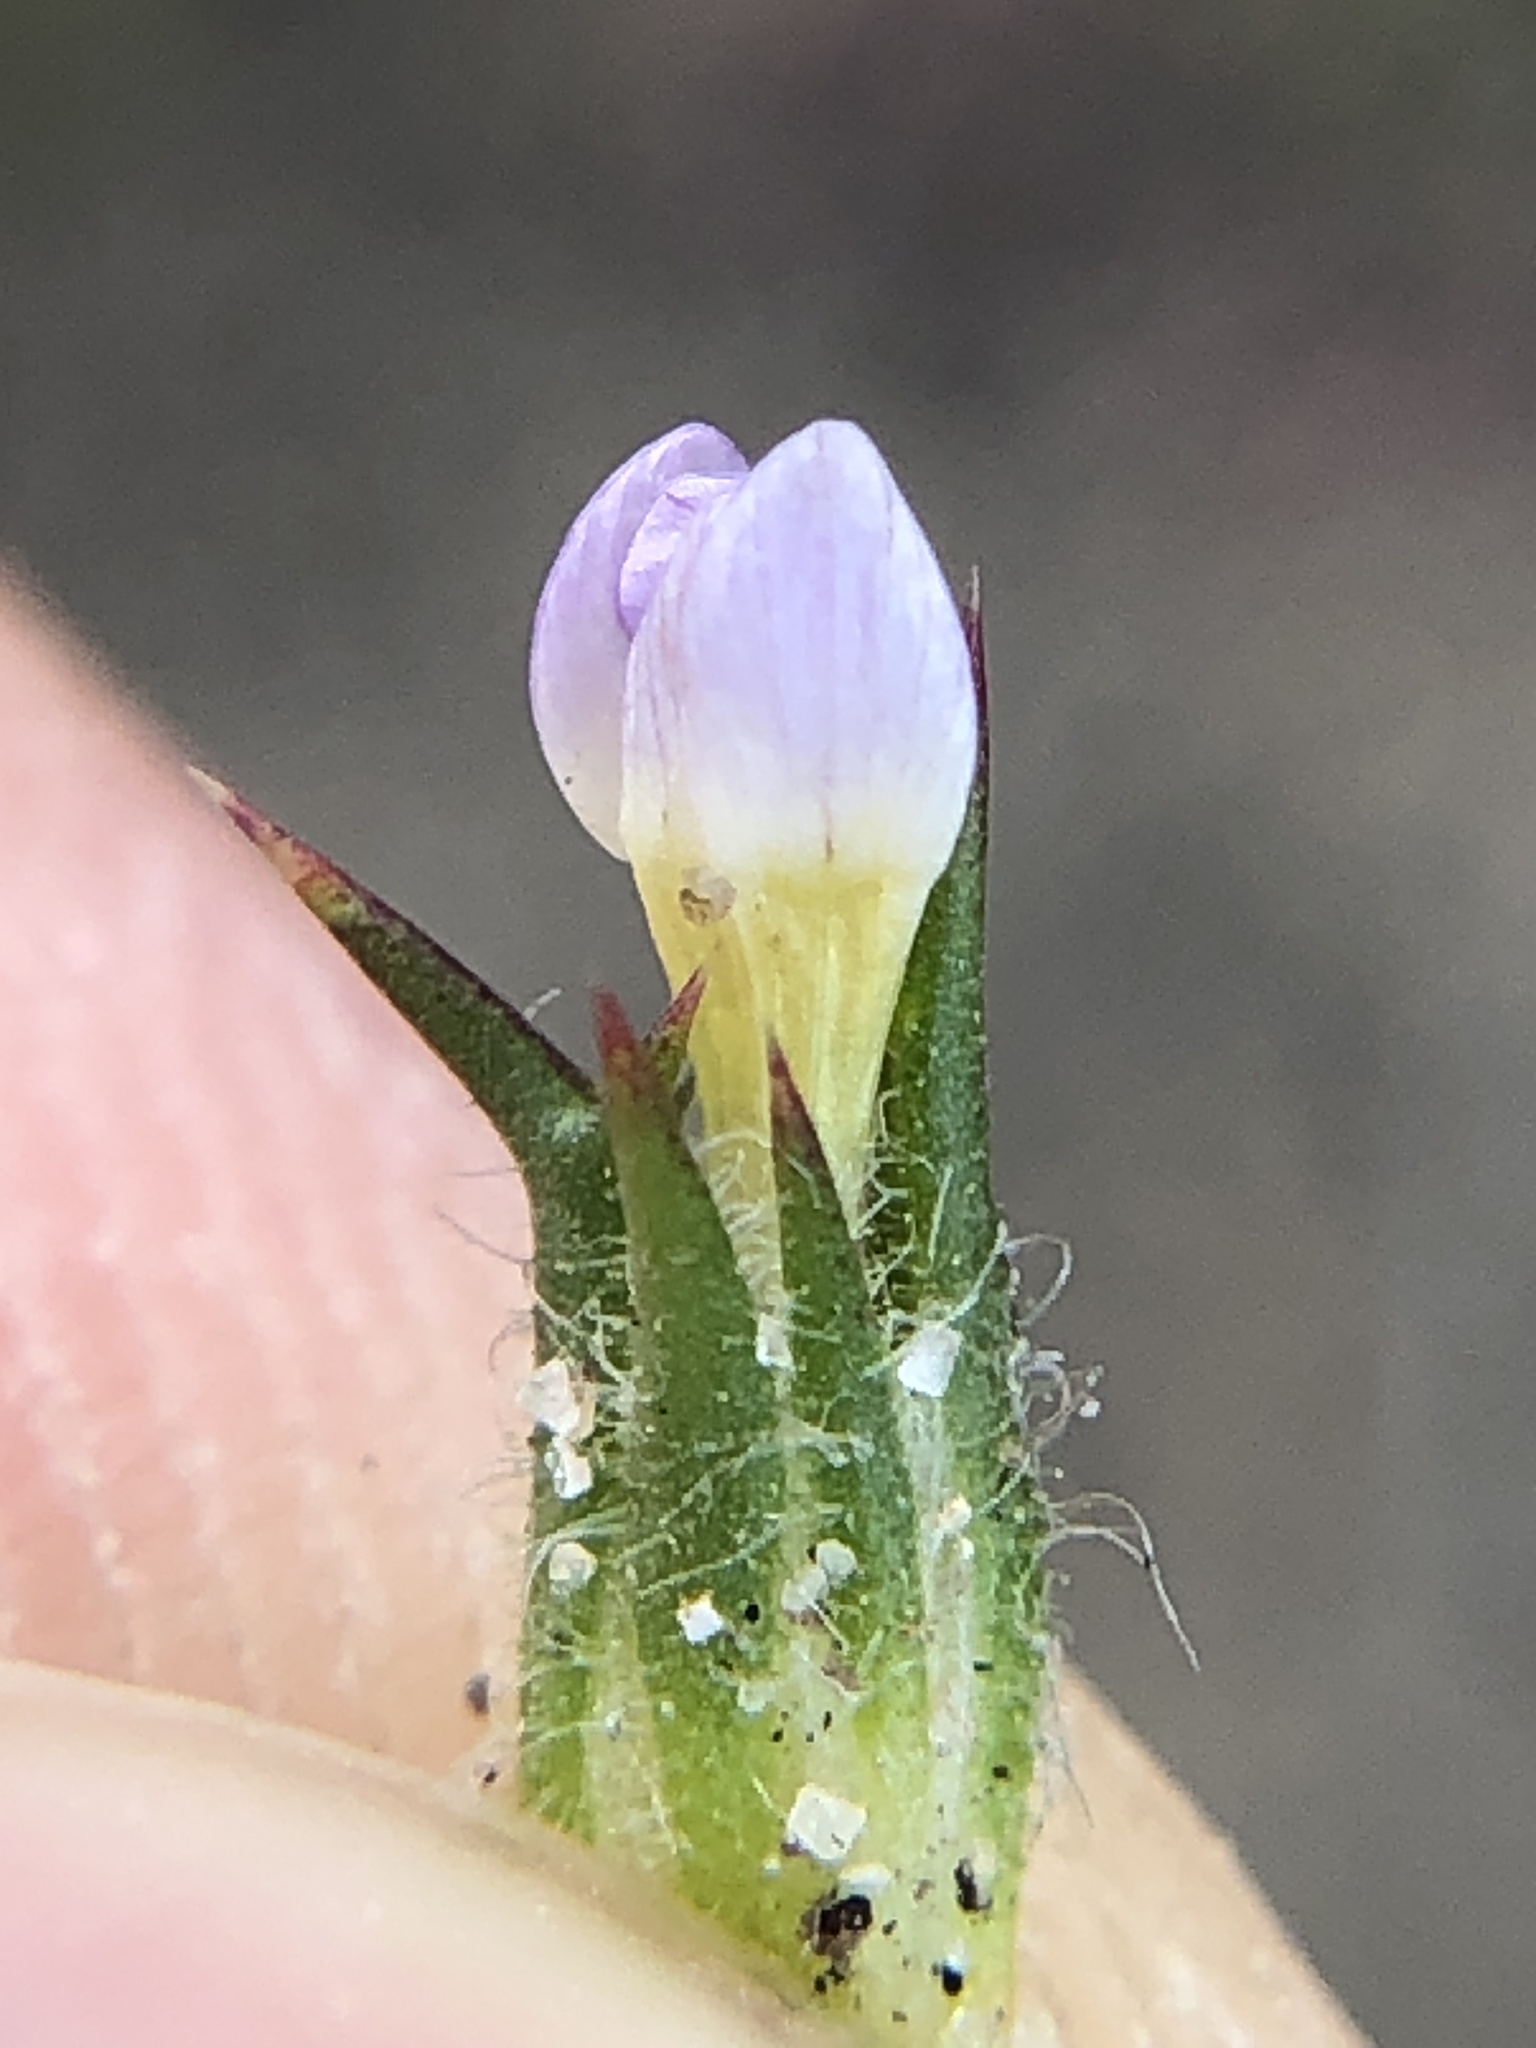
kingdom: Plantae
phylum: Tracheophyta
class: Magnoliopsida
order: Ericales
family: Polemoniaceae
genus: Navarretia
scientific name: Navarretia hamata
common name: Hooked navarretia
